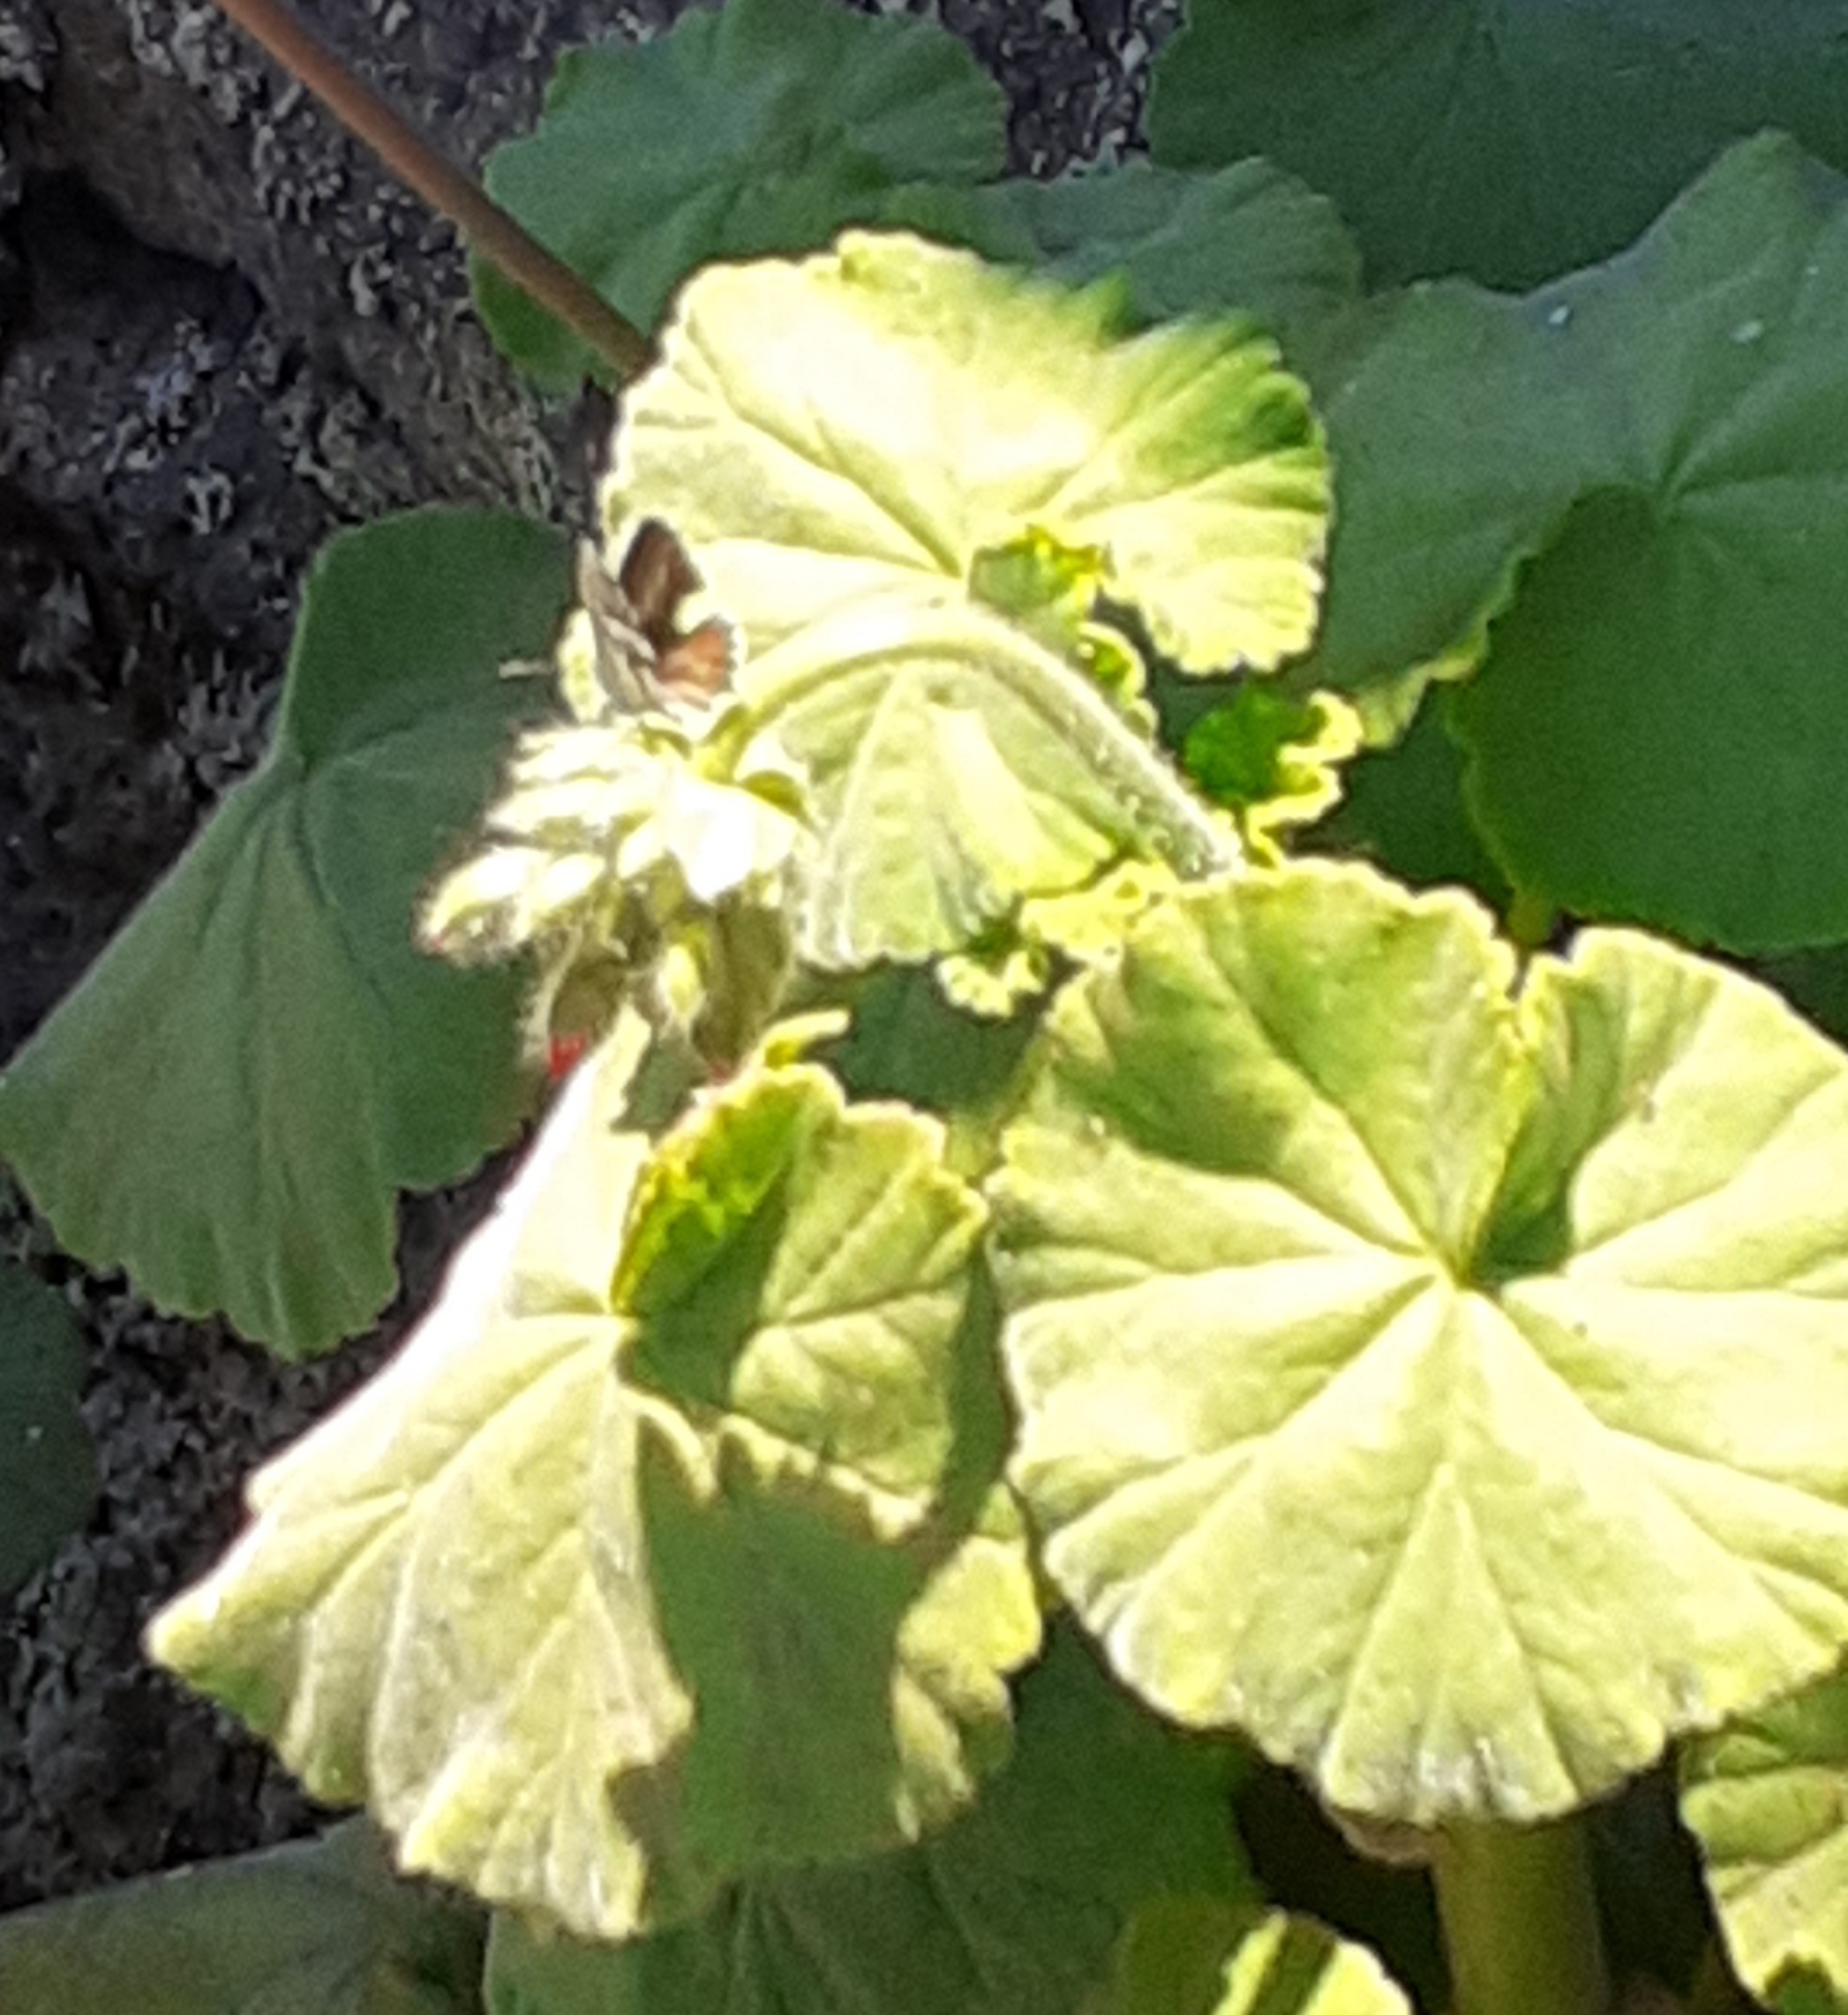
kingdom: Animalia
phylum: Arthropoda
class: Insecta
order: Lepidoptera
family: Lycaenidae
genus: Cacyreus
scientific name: Cacyreus marshalli
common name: Geranium bronze
